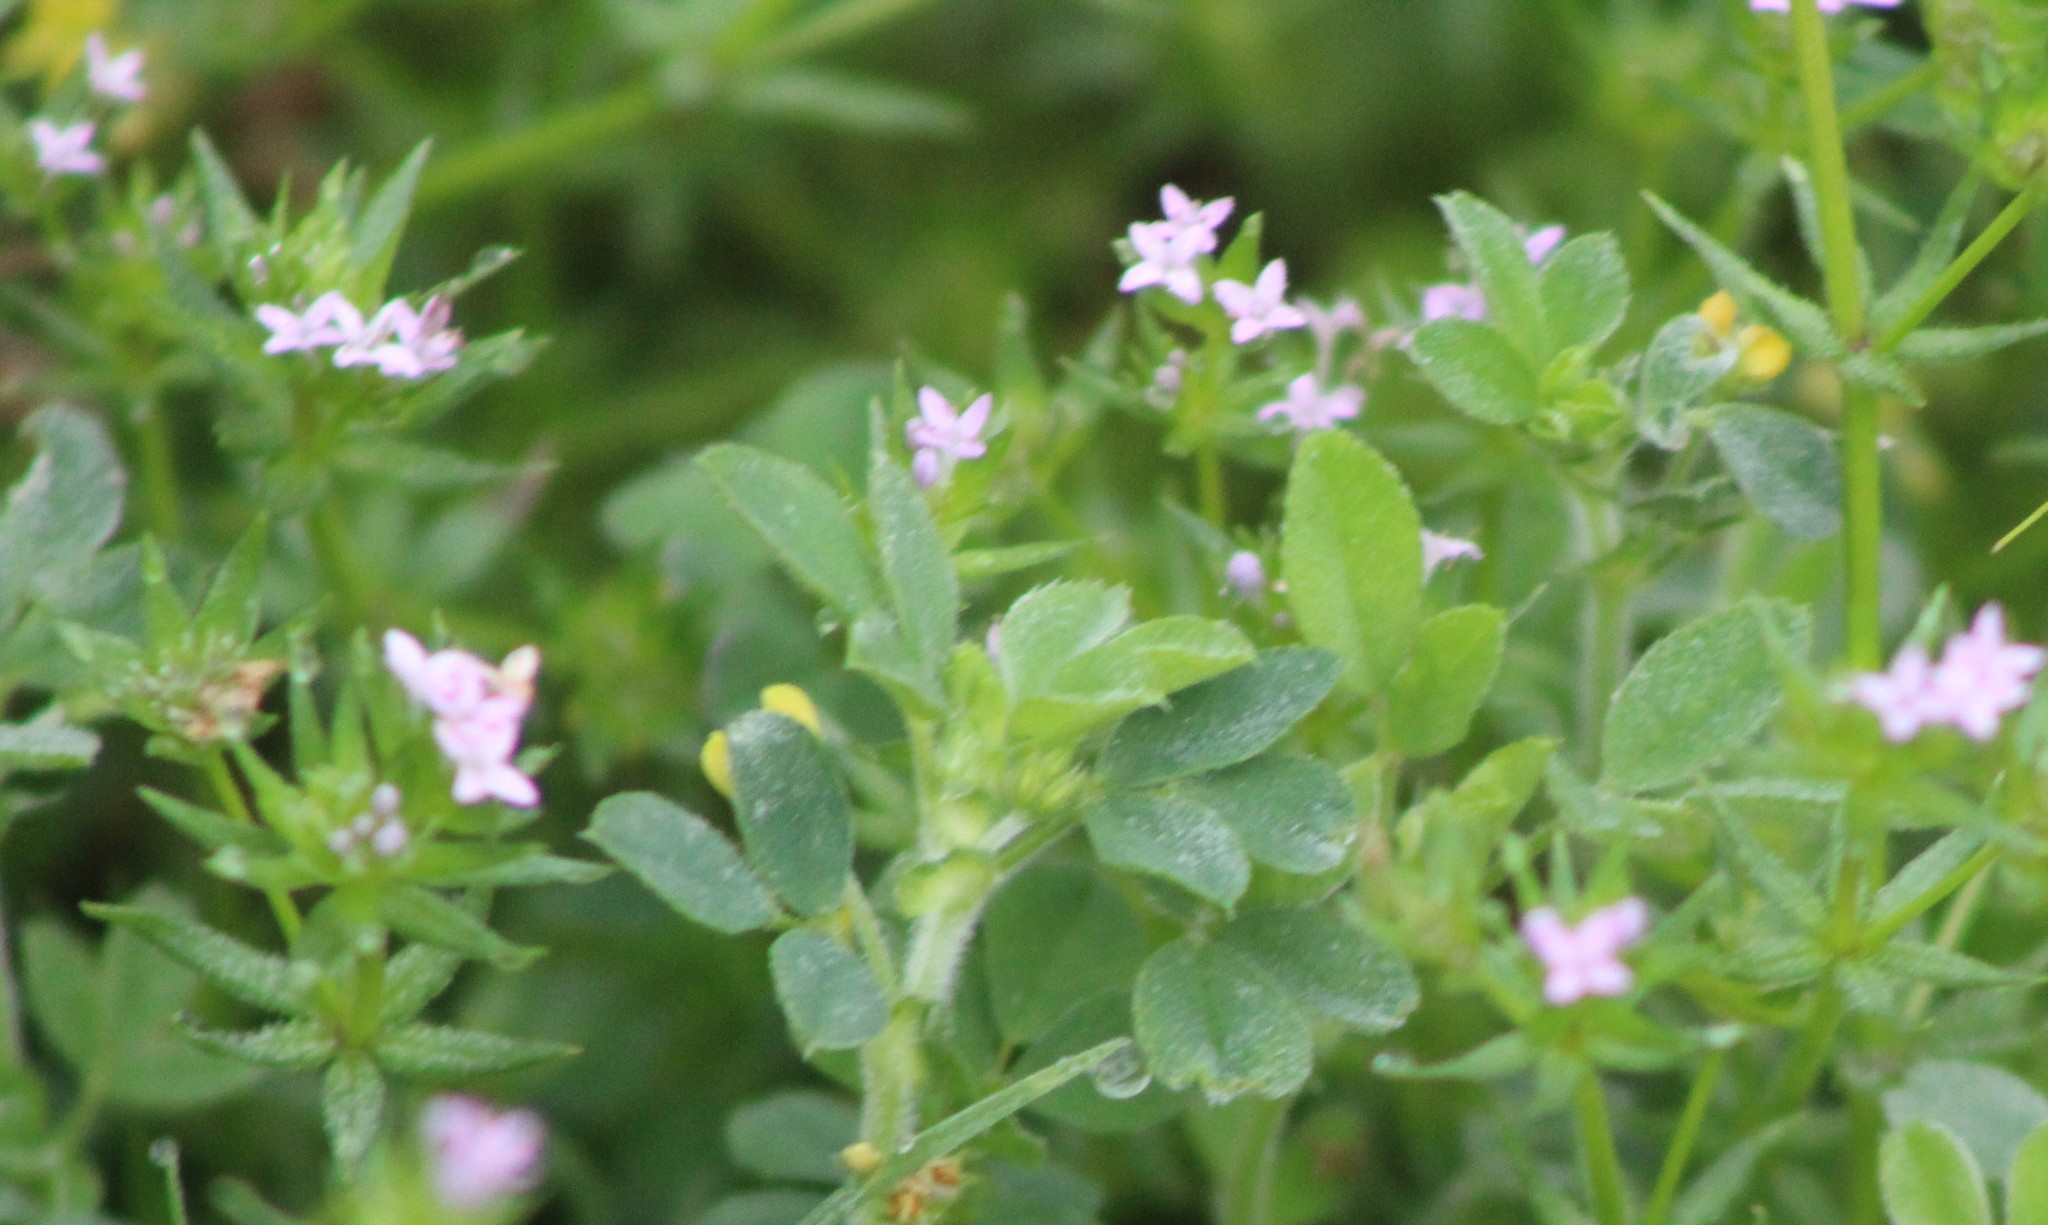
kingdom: Plantae
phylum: Tracheophyta
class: Magnoliopsida
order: Gentianales
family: Rubiaceae
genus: Sherardia
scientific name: Sherardia arvensis
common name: Field madder
